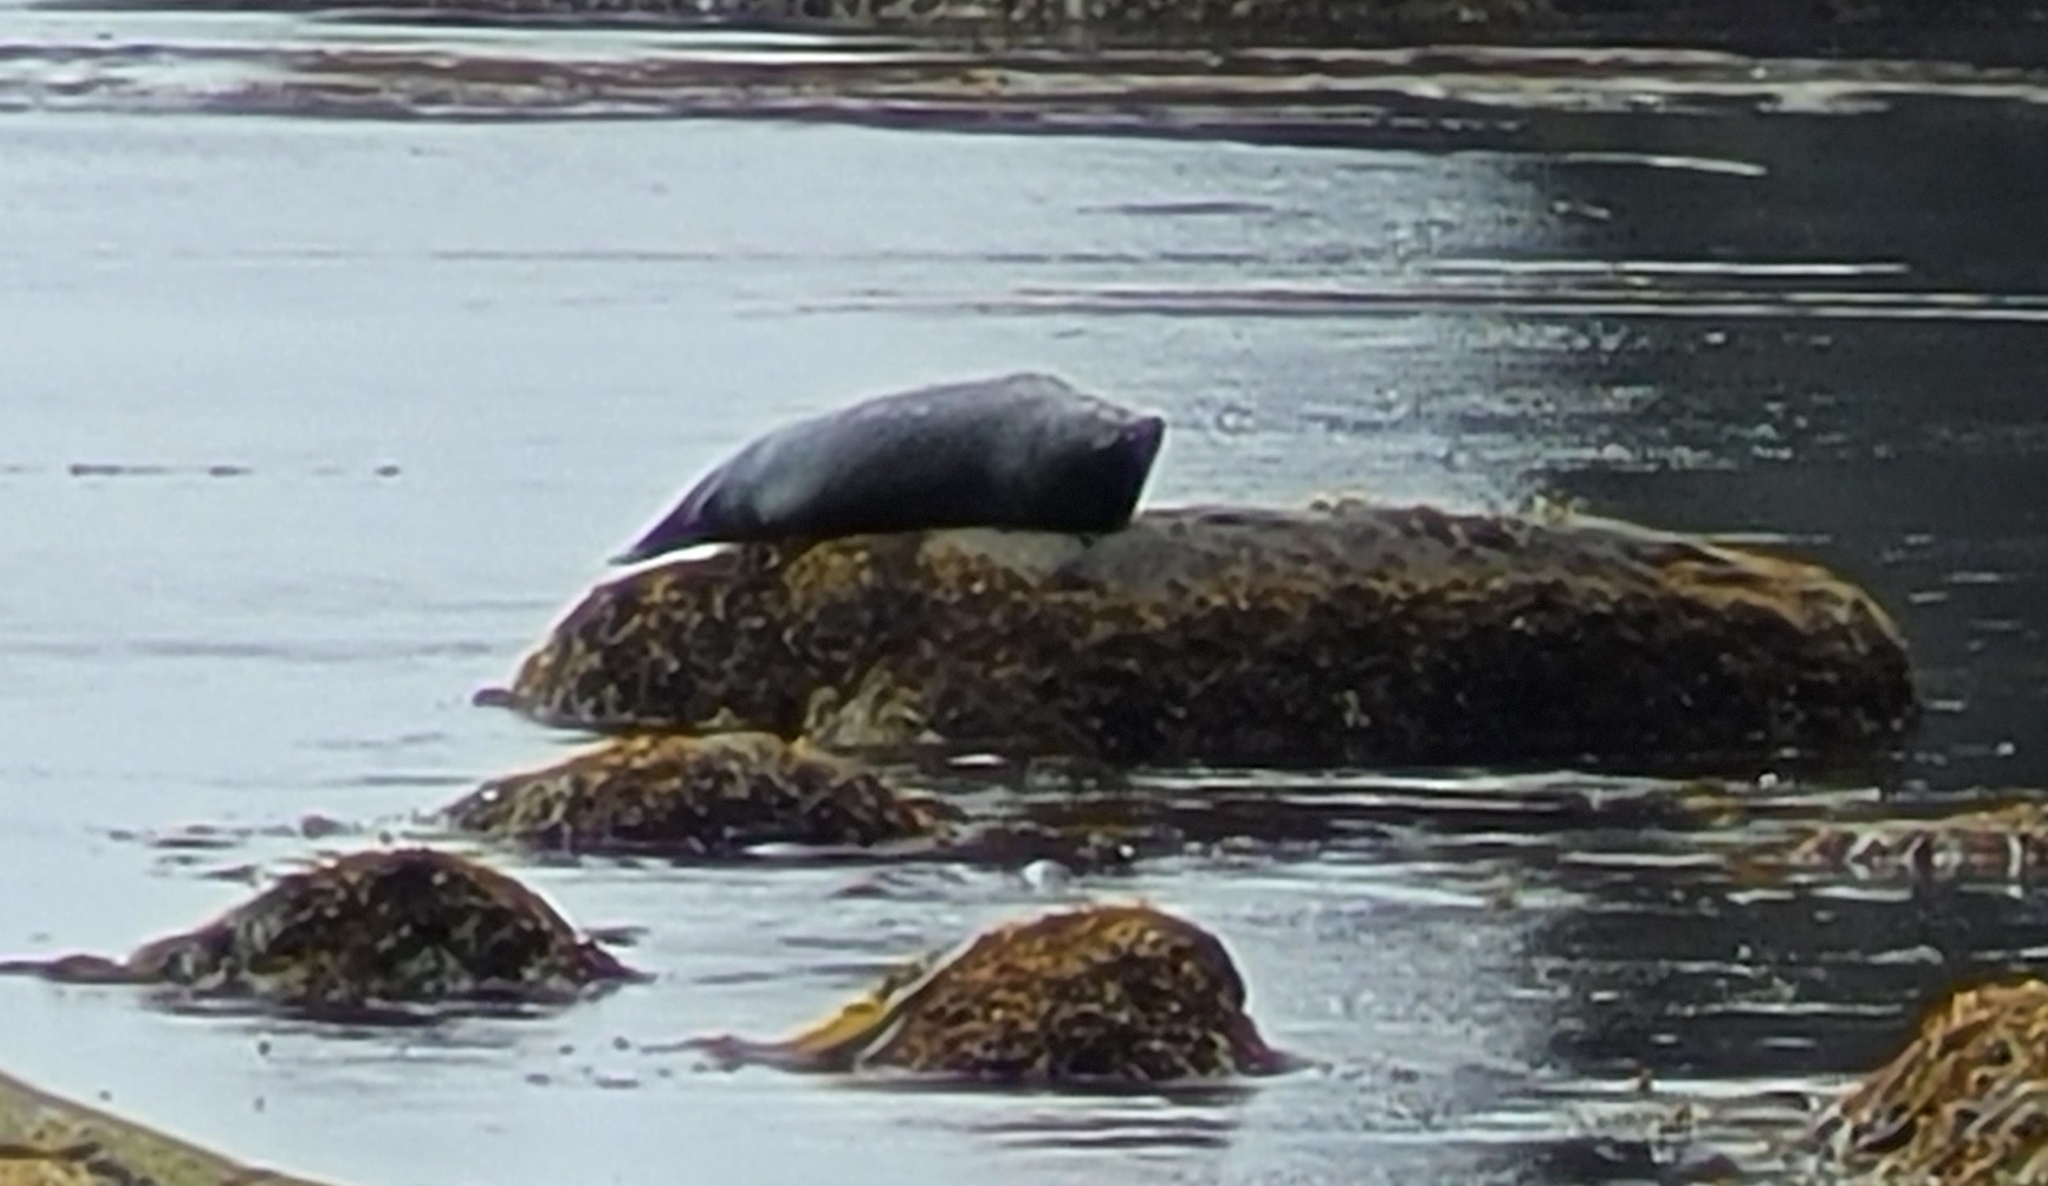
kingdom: Animalia
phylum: Chordata
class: Mammalia
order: Carnivora
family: Phocidae
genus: Phoca
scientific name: Phoca vitulina
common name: Harbor seal
